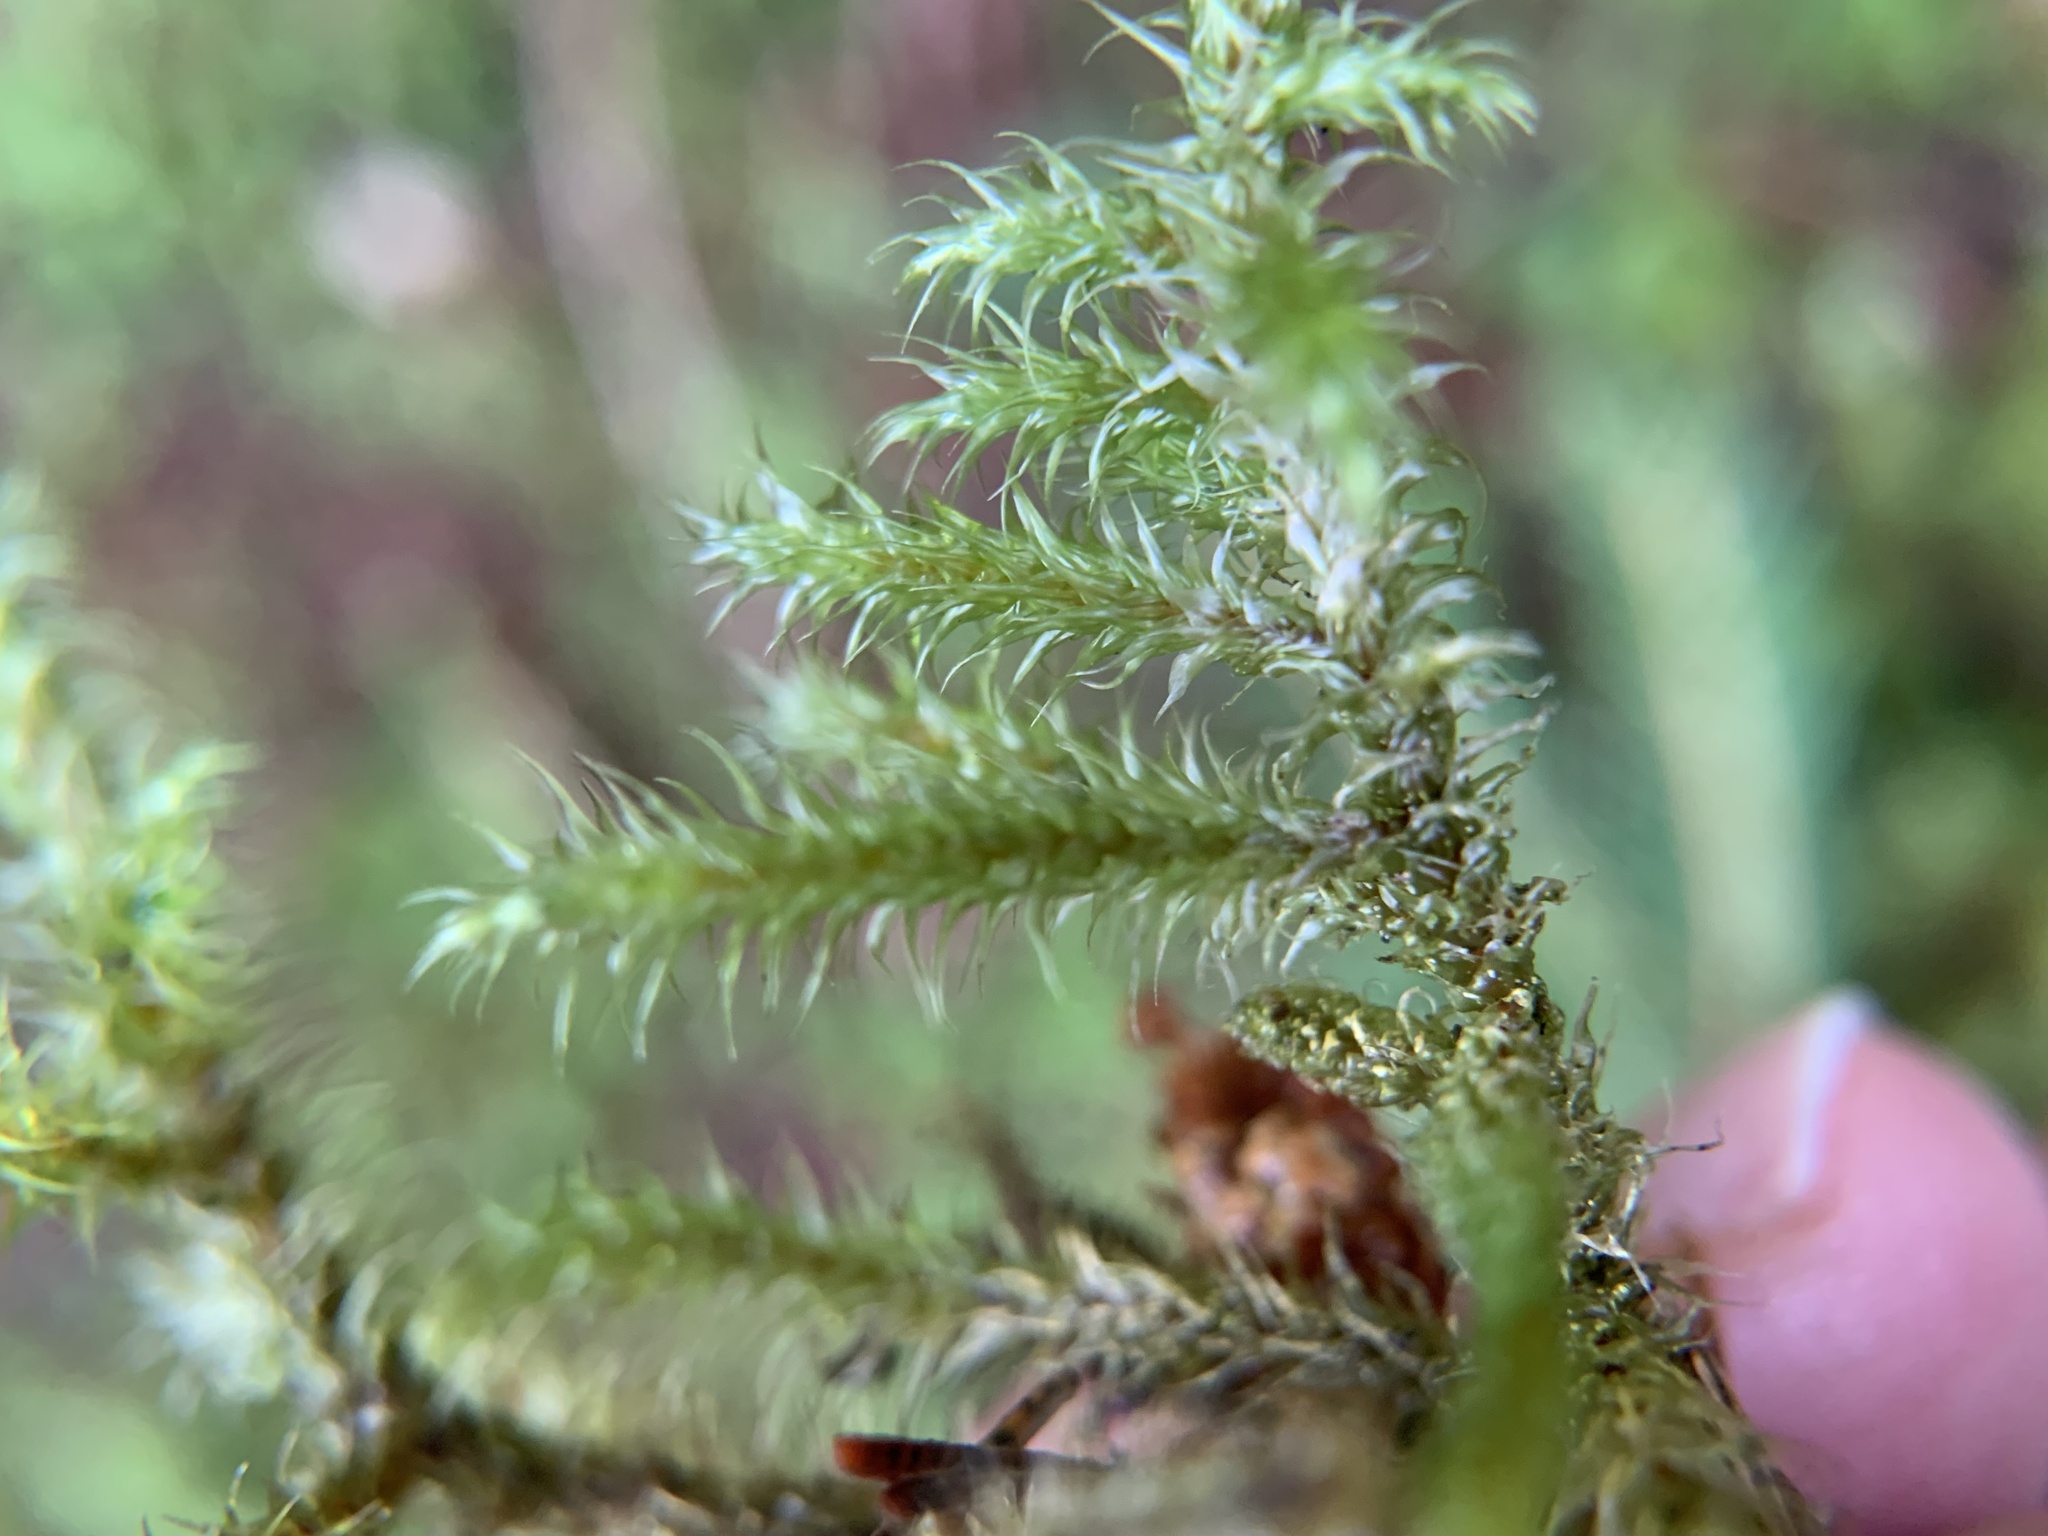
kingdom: Plantae
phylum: Bryophyta
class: Bryopsida
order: Hypnales
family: Hylocomiaceae
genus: Rhytidiadelphus
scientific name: Rhytidiadelphus loreus
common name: Lanky moss
